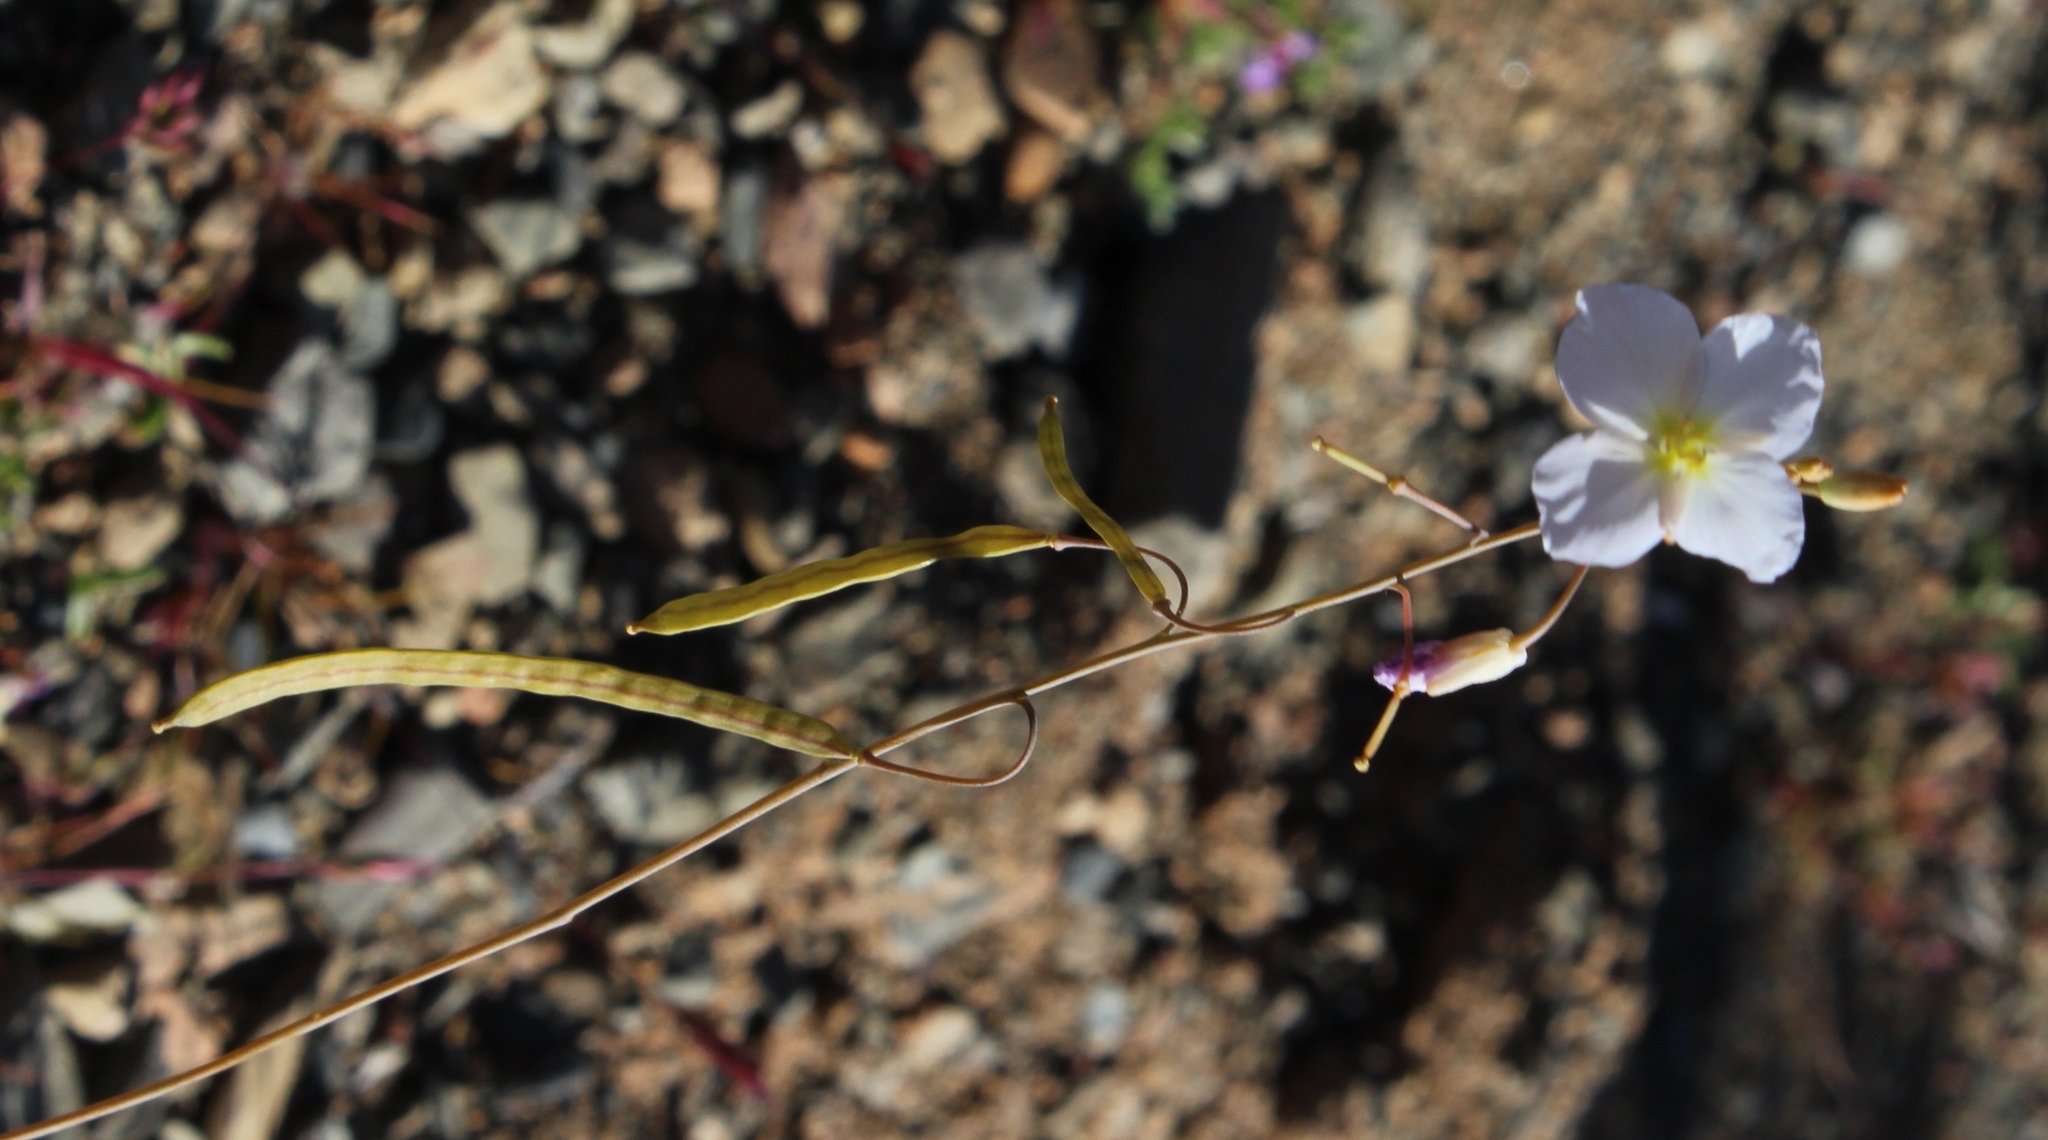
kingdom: Plantae
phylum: Tracheophyta
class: Magnoliopsida
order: Brassicales
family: Brassicaceae
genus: Heliophila
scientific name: Heliophila deserticola
